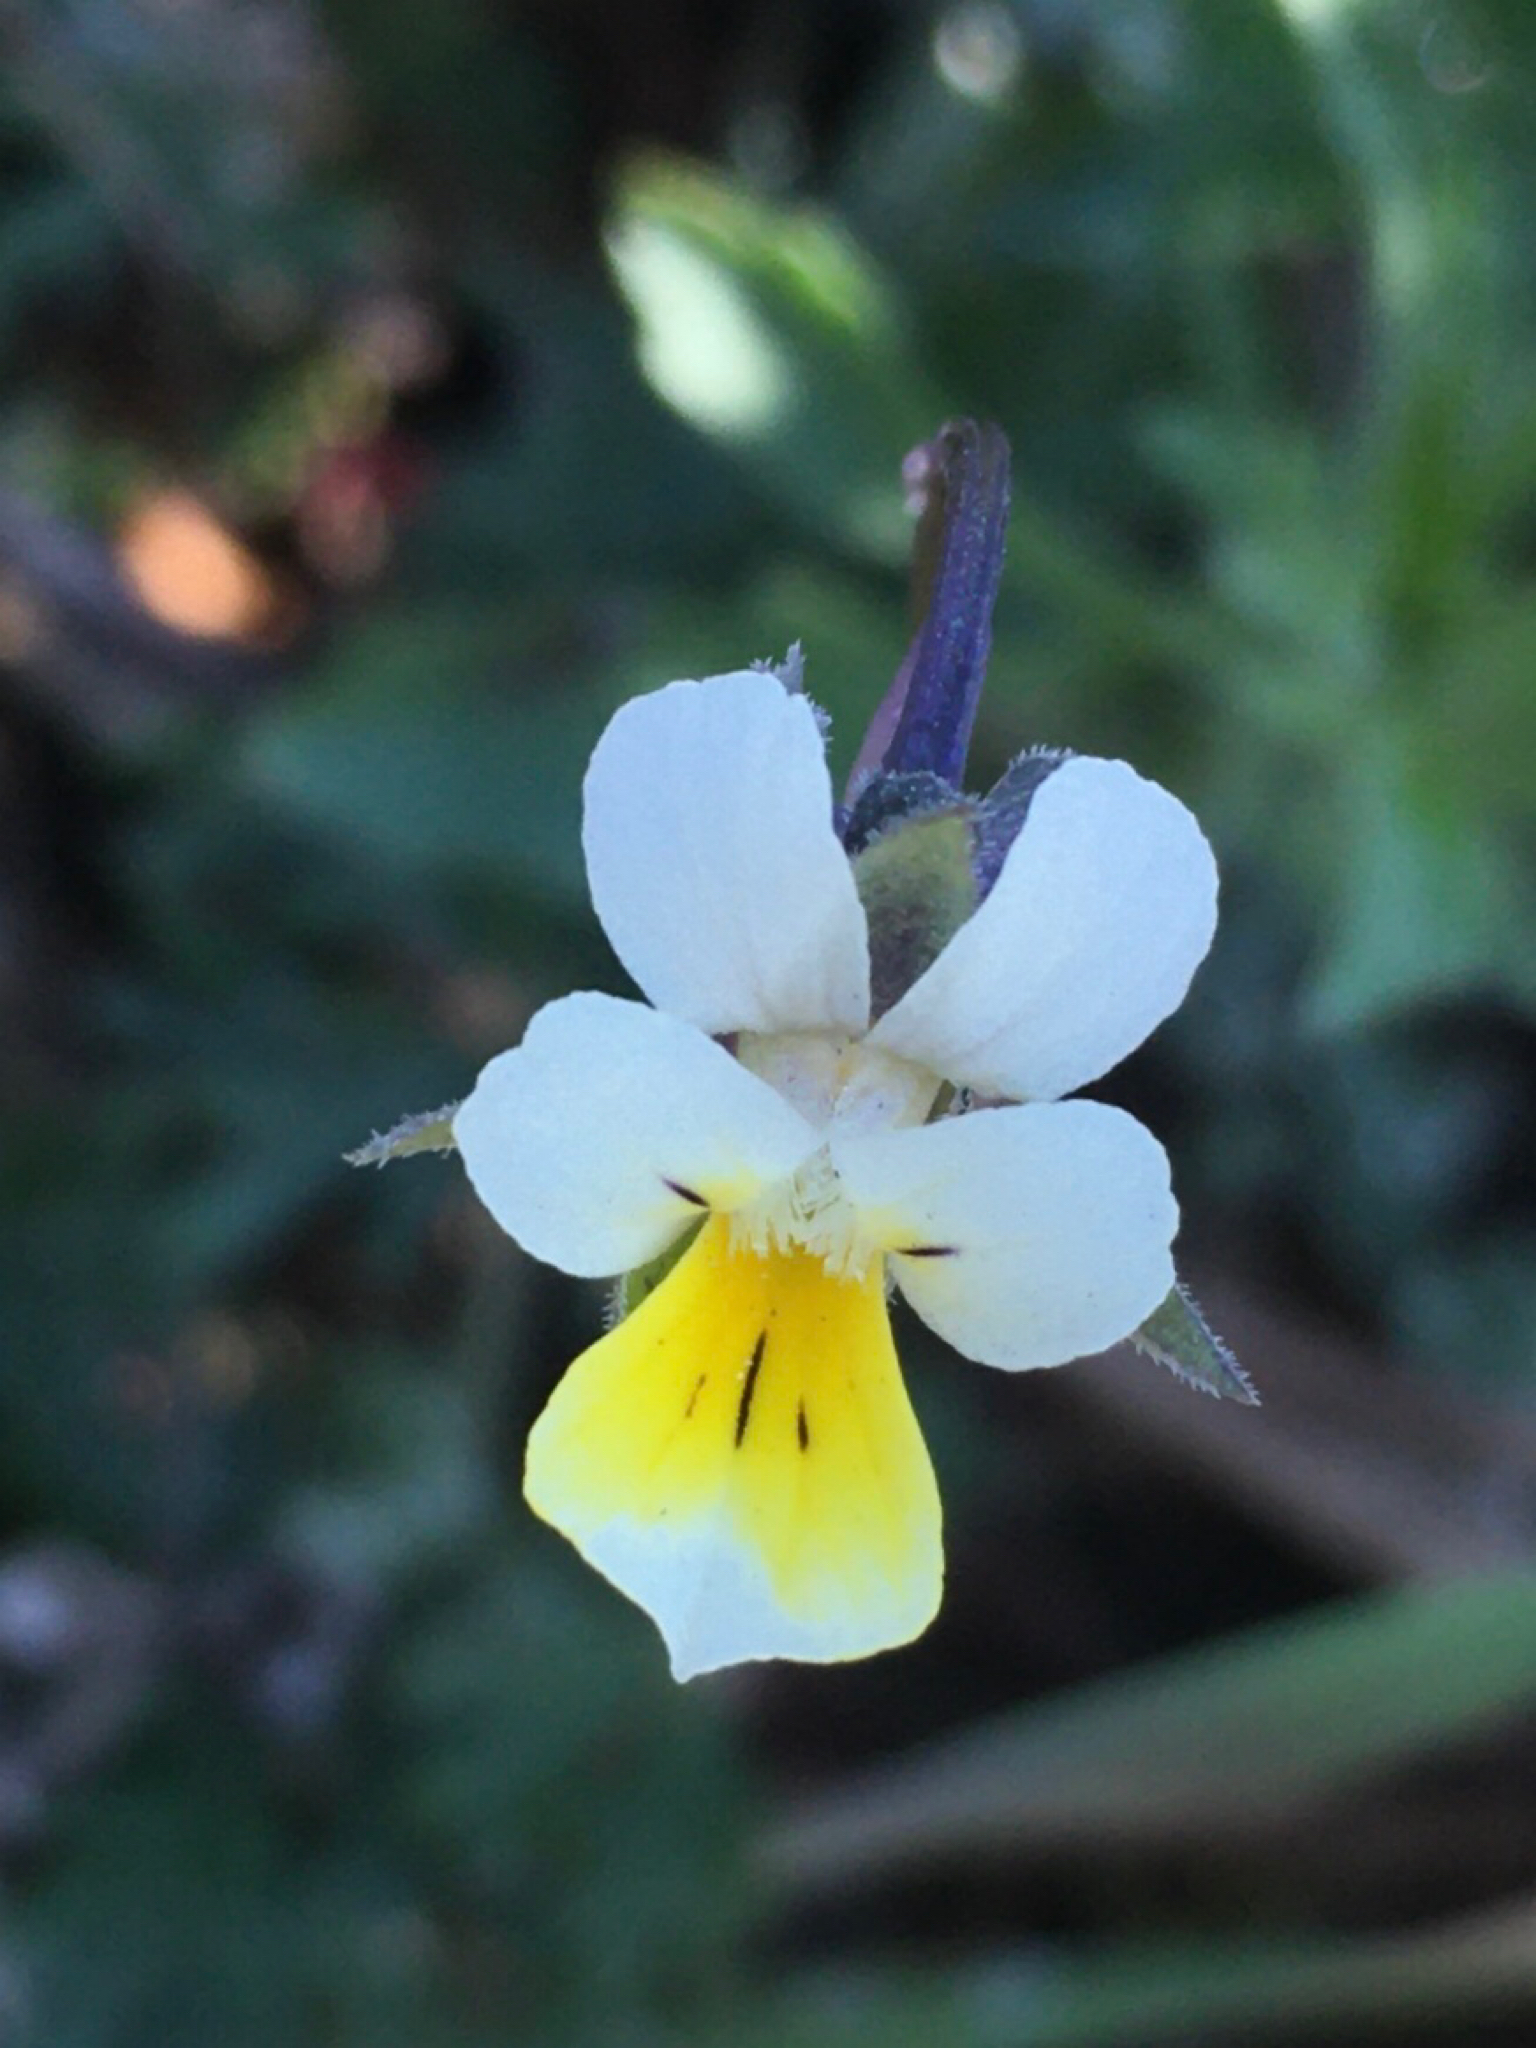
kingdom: Plantae
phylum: Tracheophyta
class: Magnoliopsida
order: Malpighiales
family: Violaceae
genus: Viola
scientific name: Viola arvensis
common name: Field pansy
